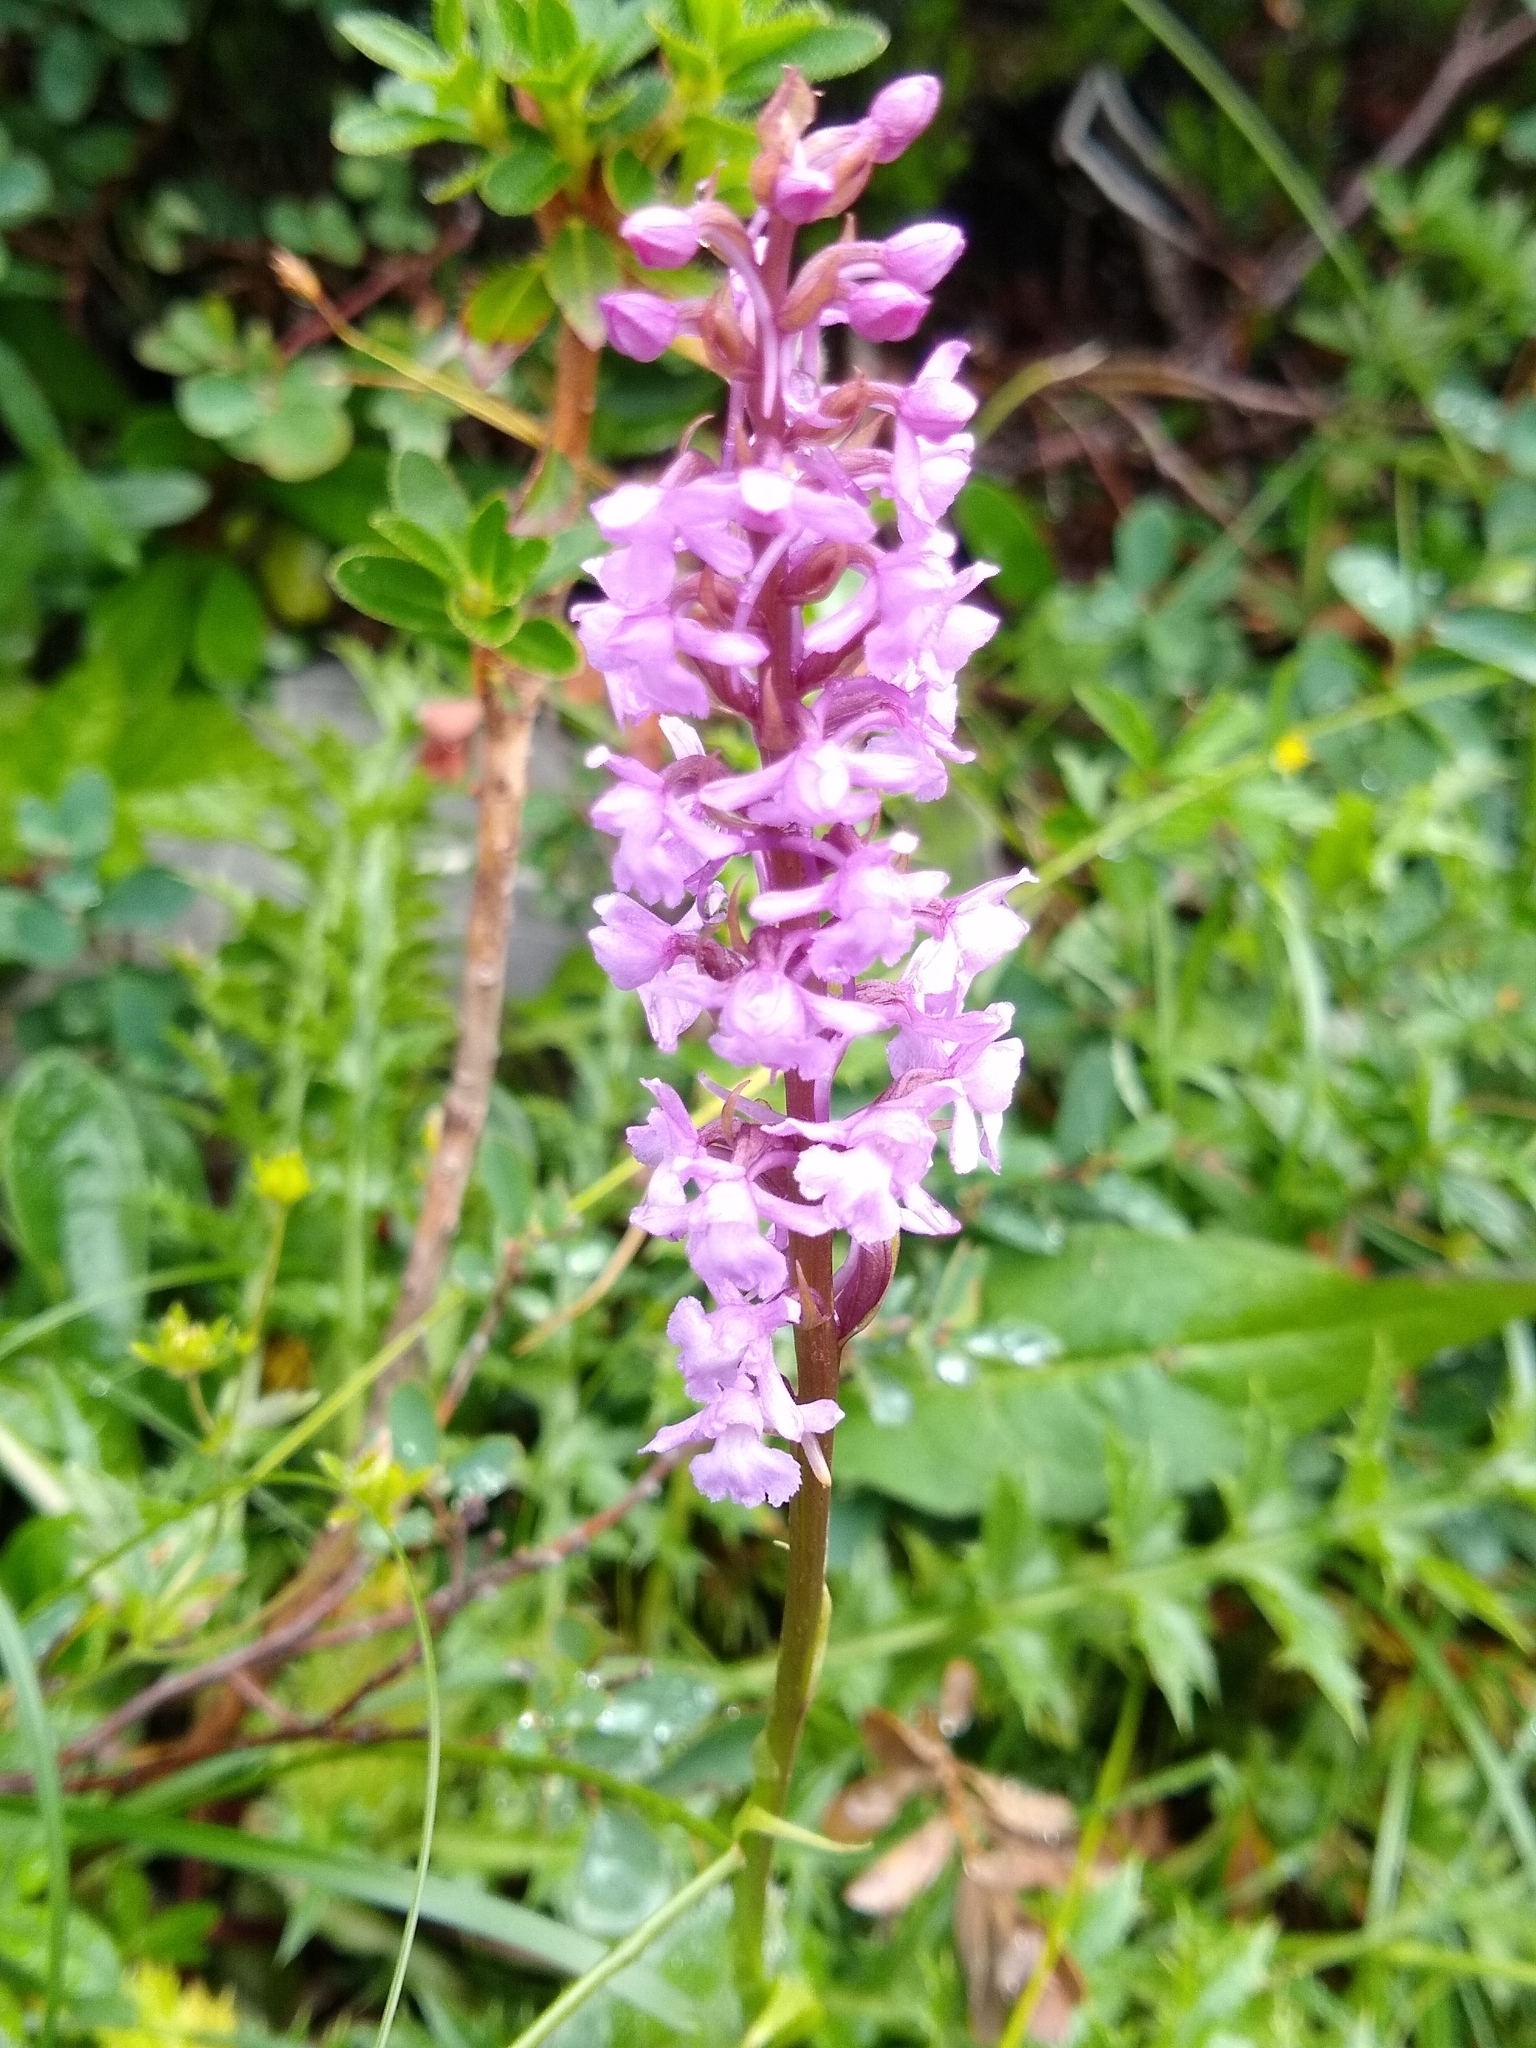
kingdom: Plantae
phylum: Tracheophyta
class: Liliopsida
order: Asparagales
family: Orchidaceae
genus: Gymnadenia
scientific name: Gymnadenia conopsea
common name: Fragrant orchid
